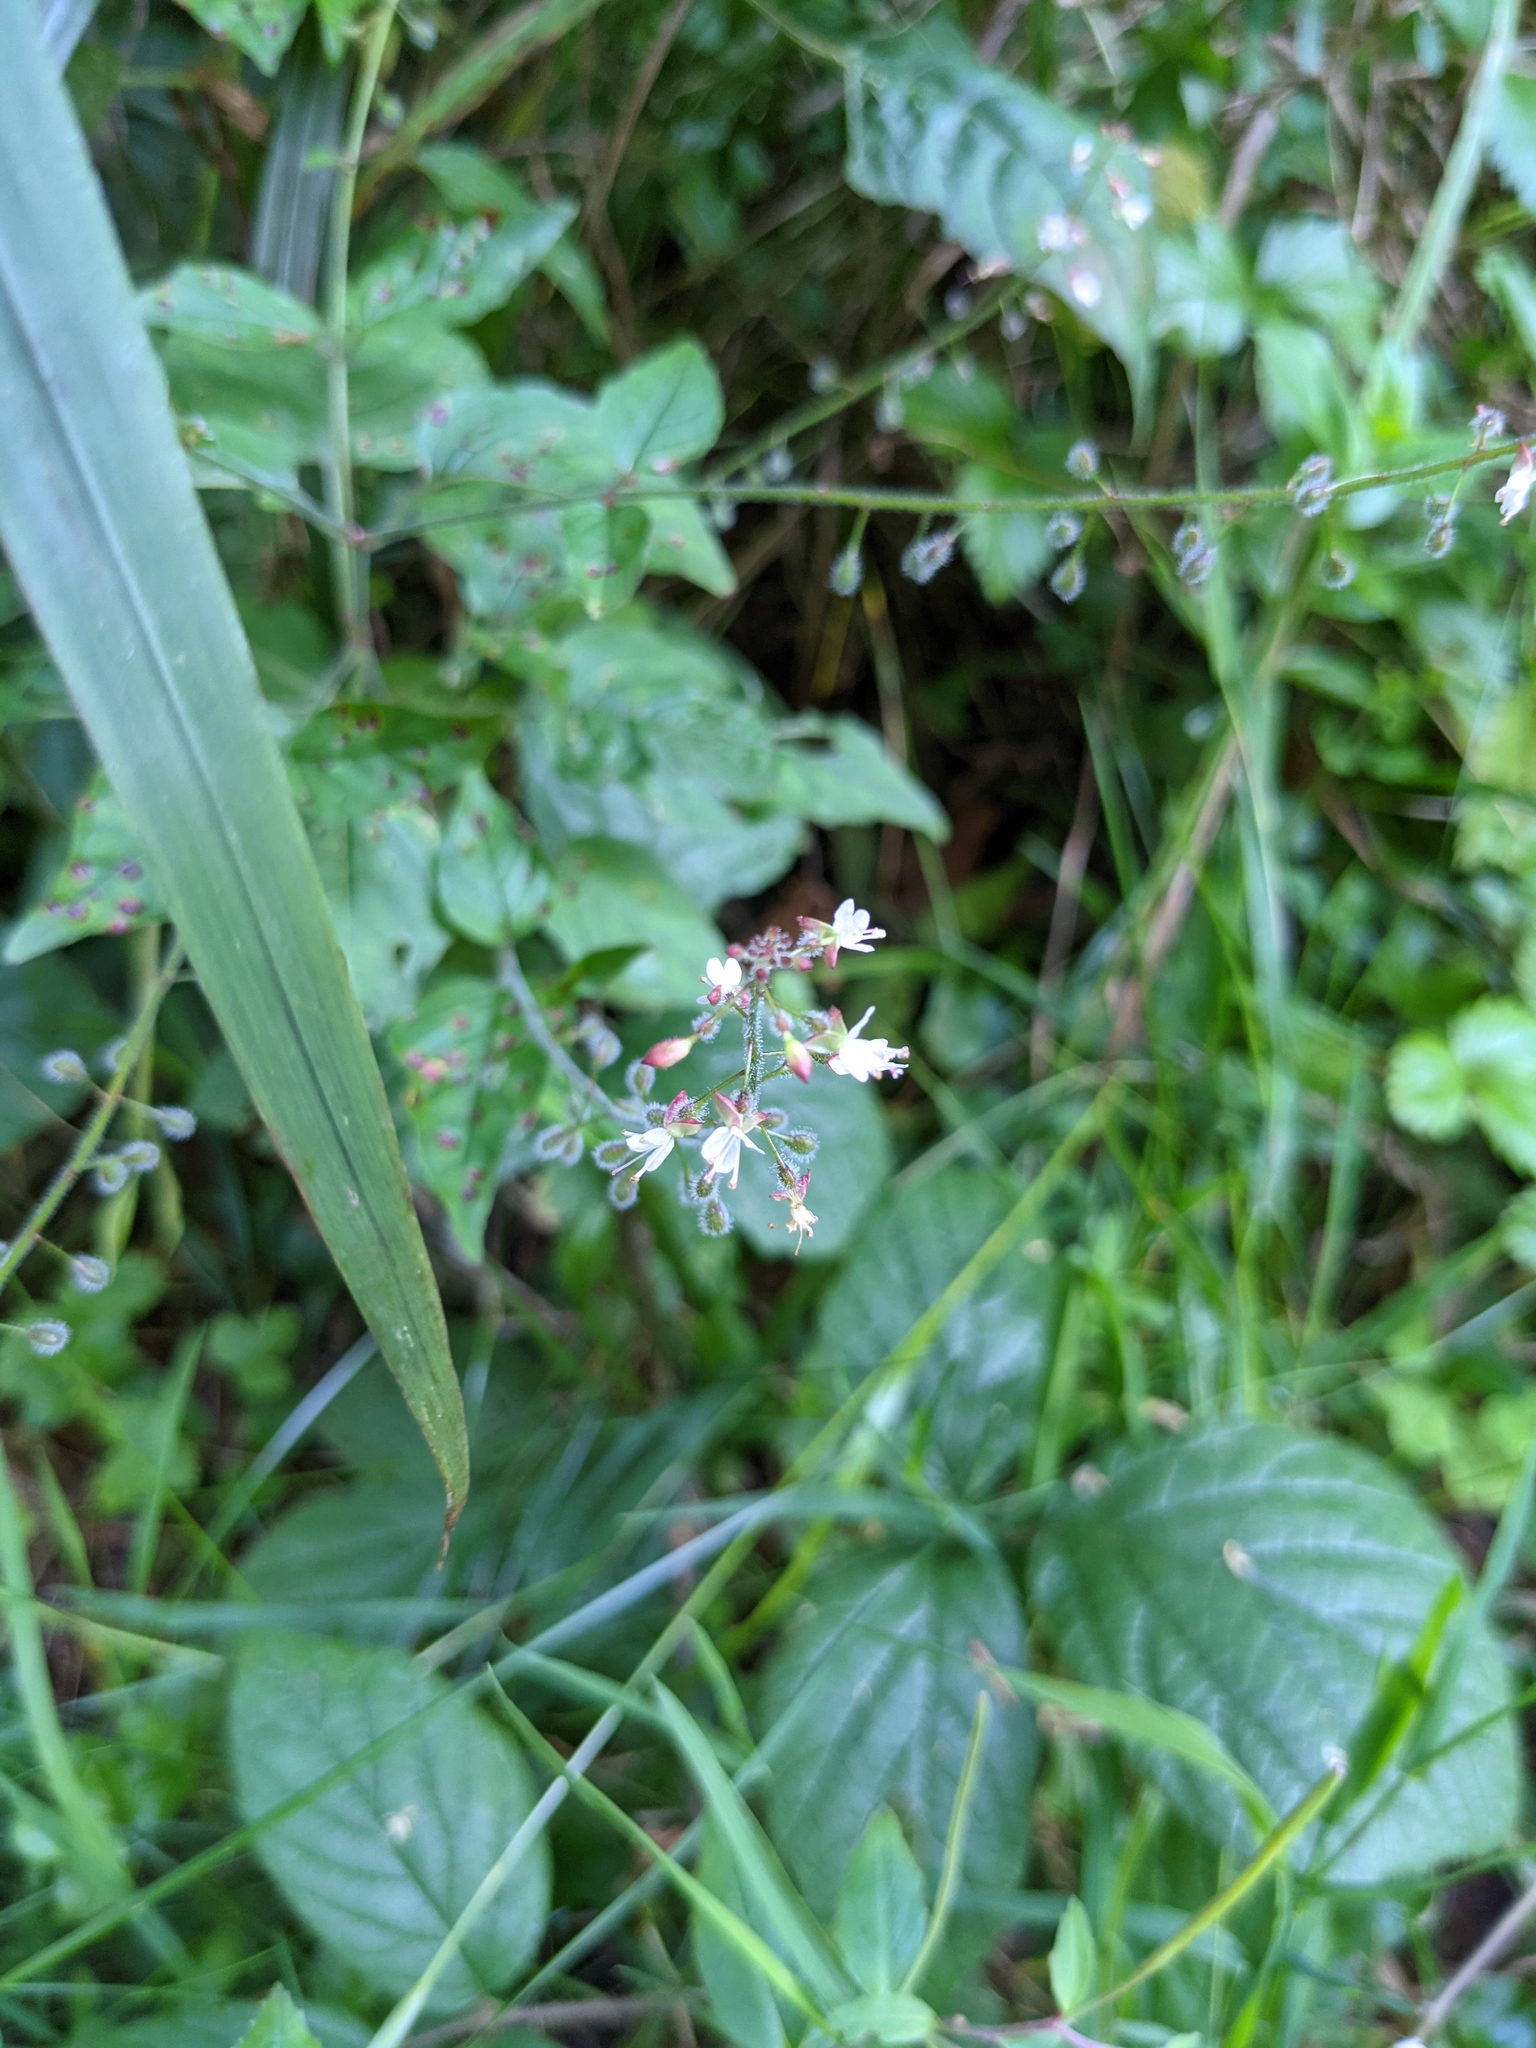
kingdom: Plantae
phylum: Tracheophyta
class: Magnoliopsida
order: Myrtales
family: Onagraceae
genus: Circaea
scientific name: Circaea lutetiana
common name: Enchanter's-nightshade
